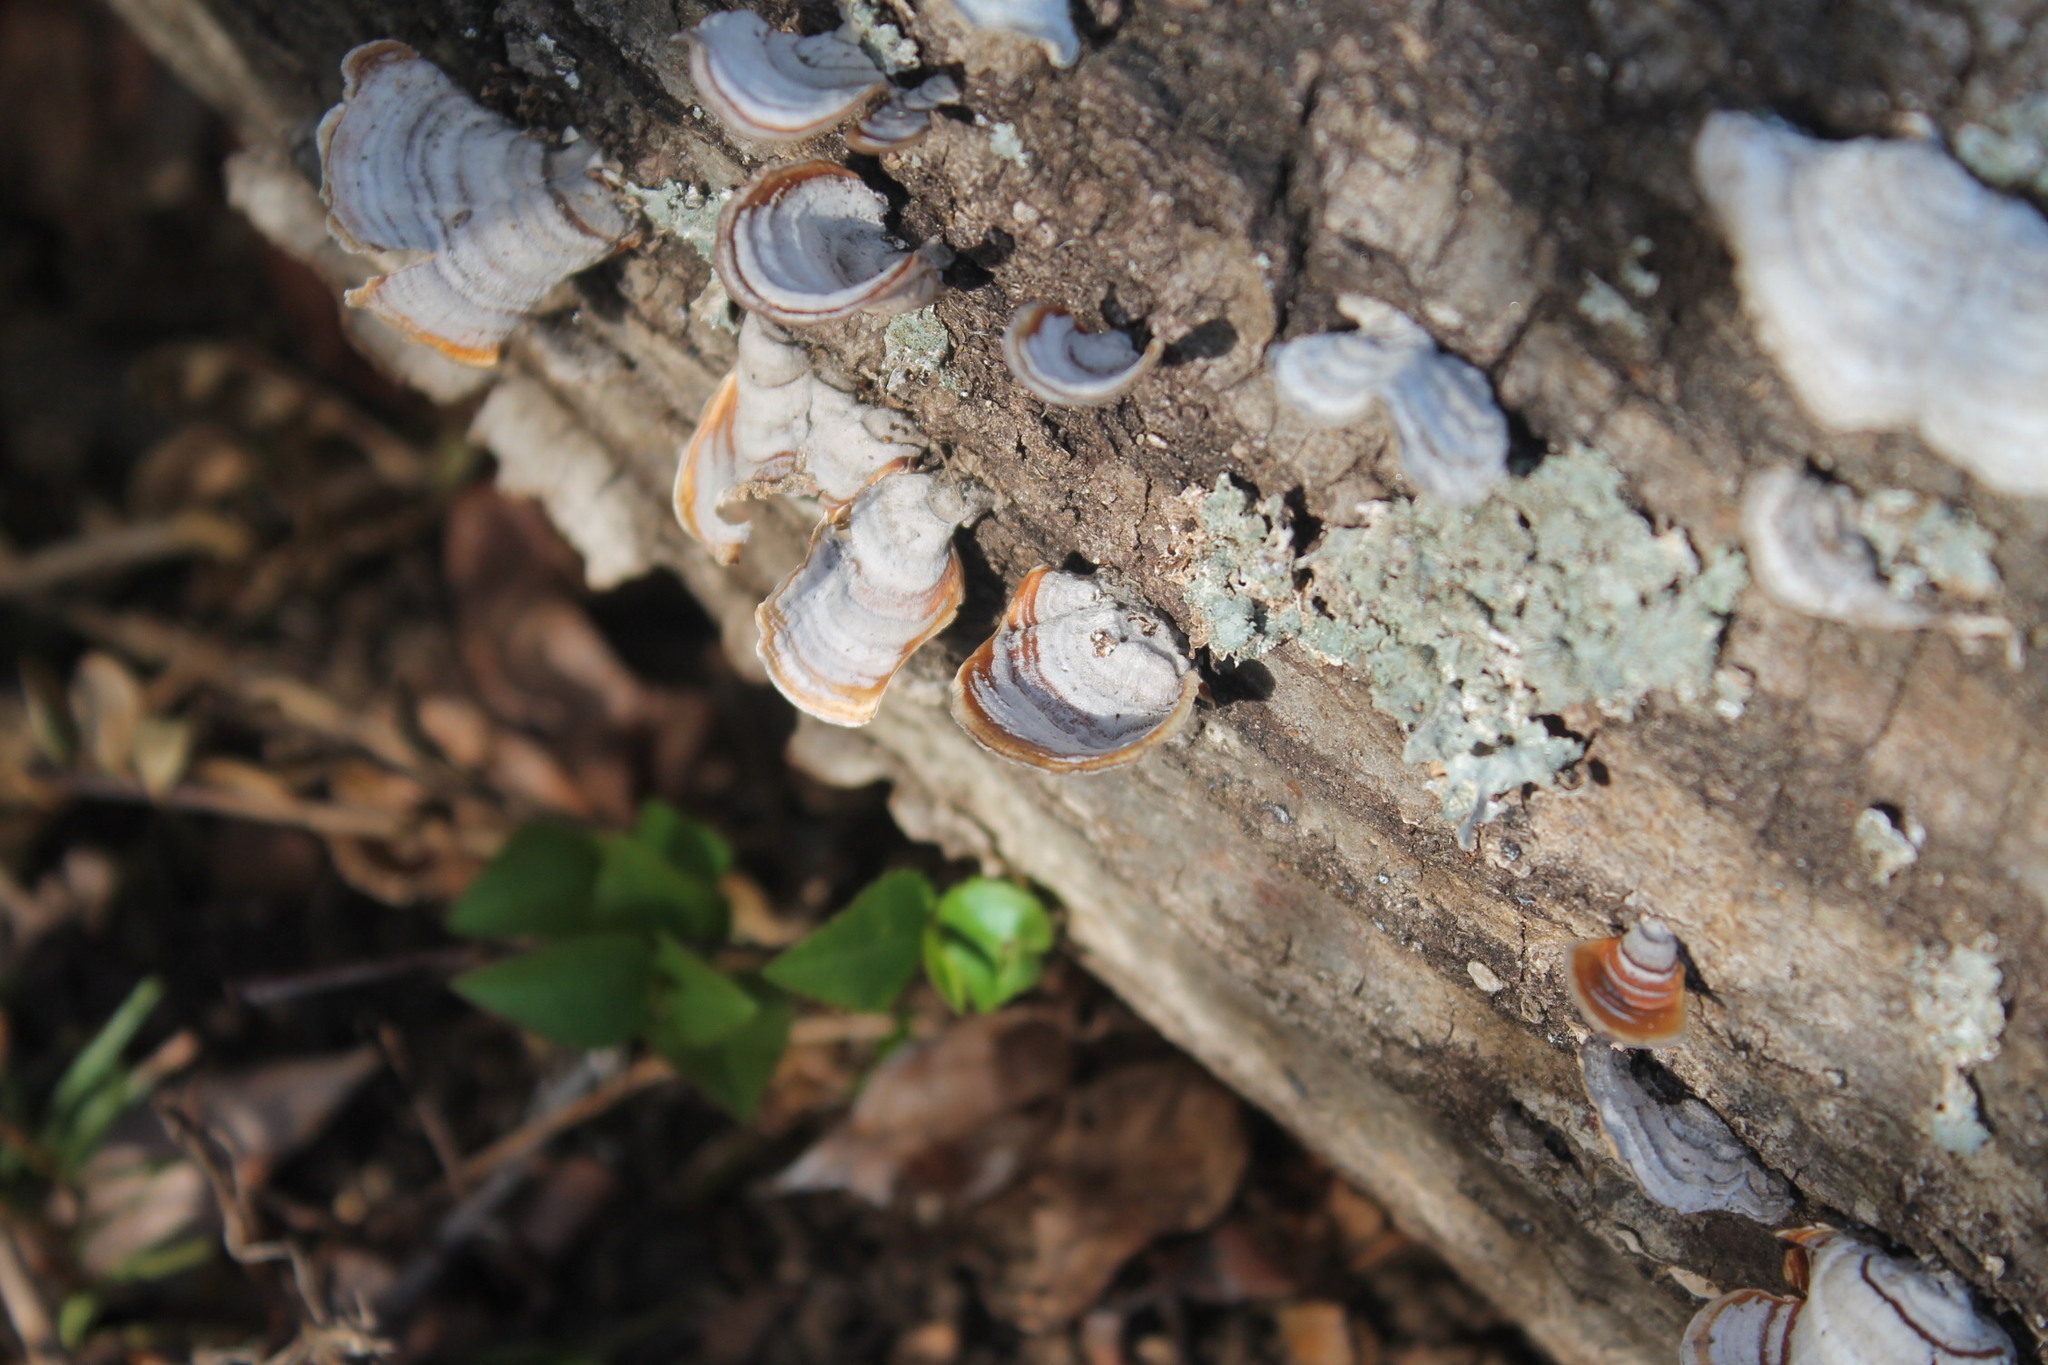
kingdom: Fungi
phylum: Basidiomycota
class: Agaricomycetes
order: Russulales
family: Stereaceae
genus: Stereum
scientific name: Stereum lobatum
